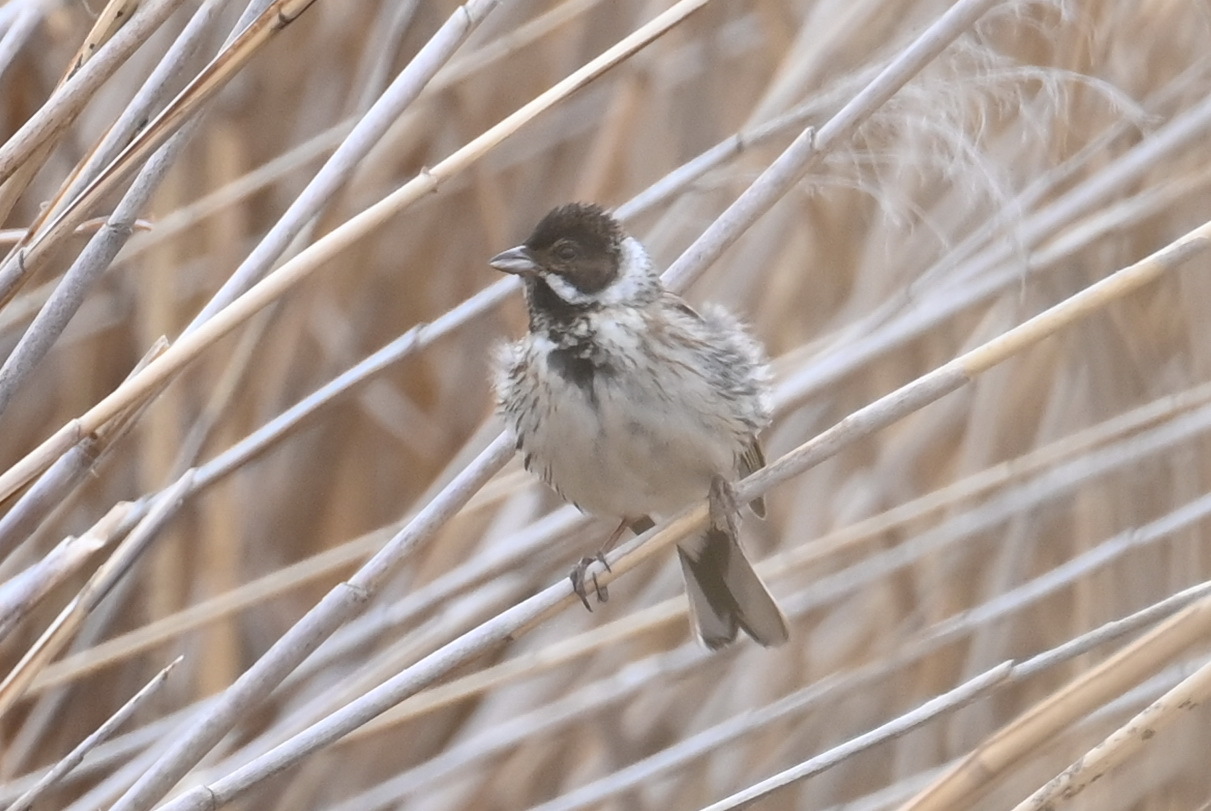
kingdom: Animalia
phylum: Chordata
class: Aves
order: Passeriformes
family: Emberizidae
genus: Emberiza
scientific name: Emberiza schoeniclus
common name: Reed bunting
